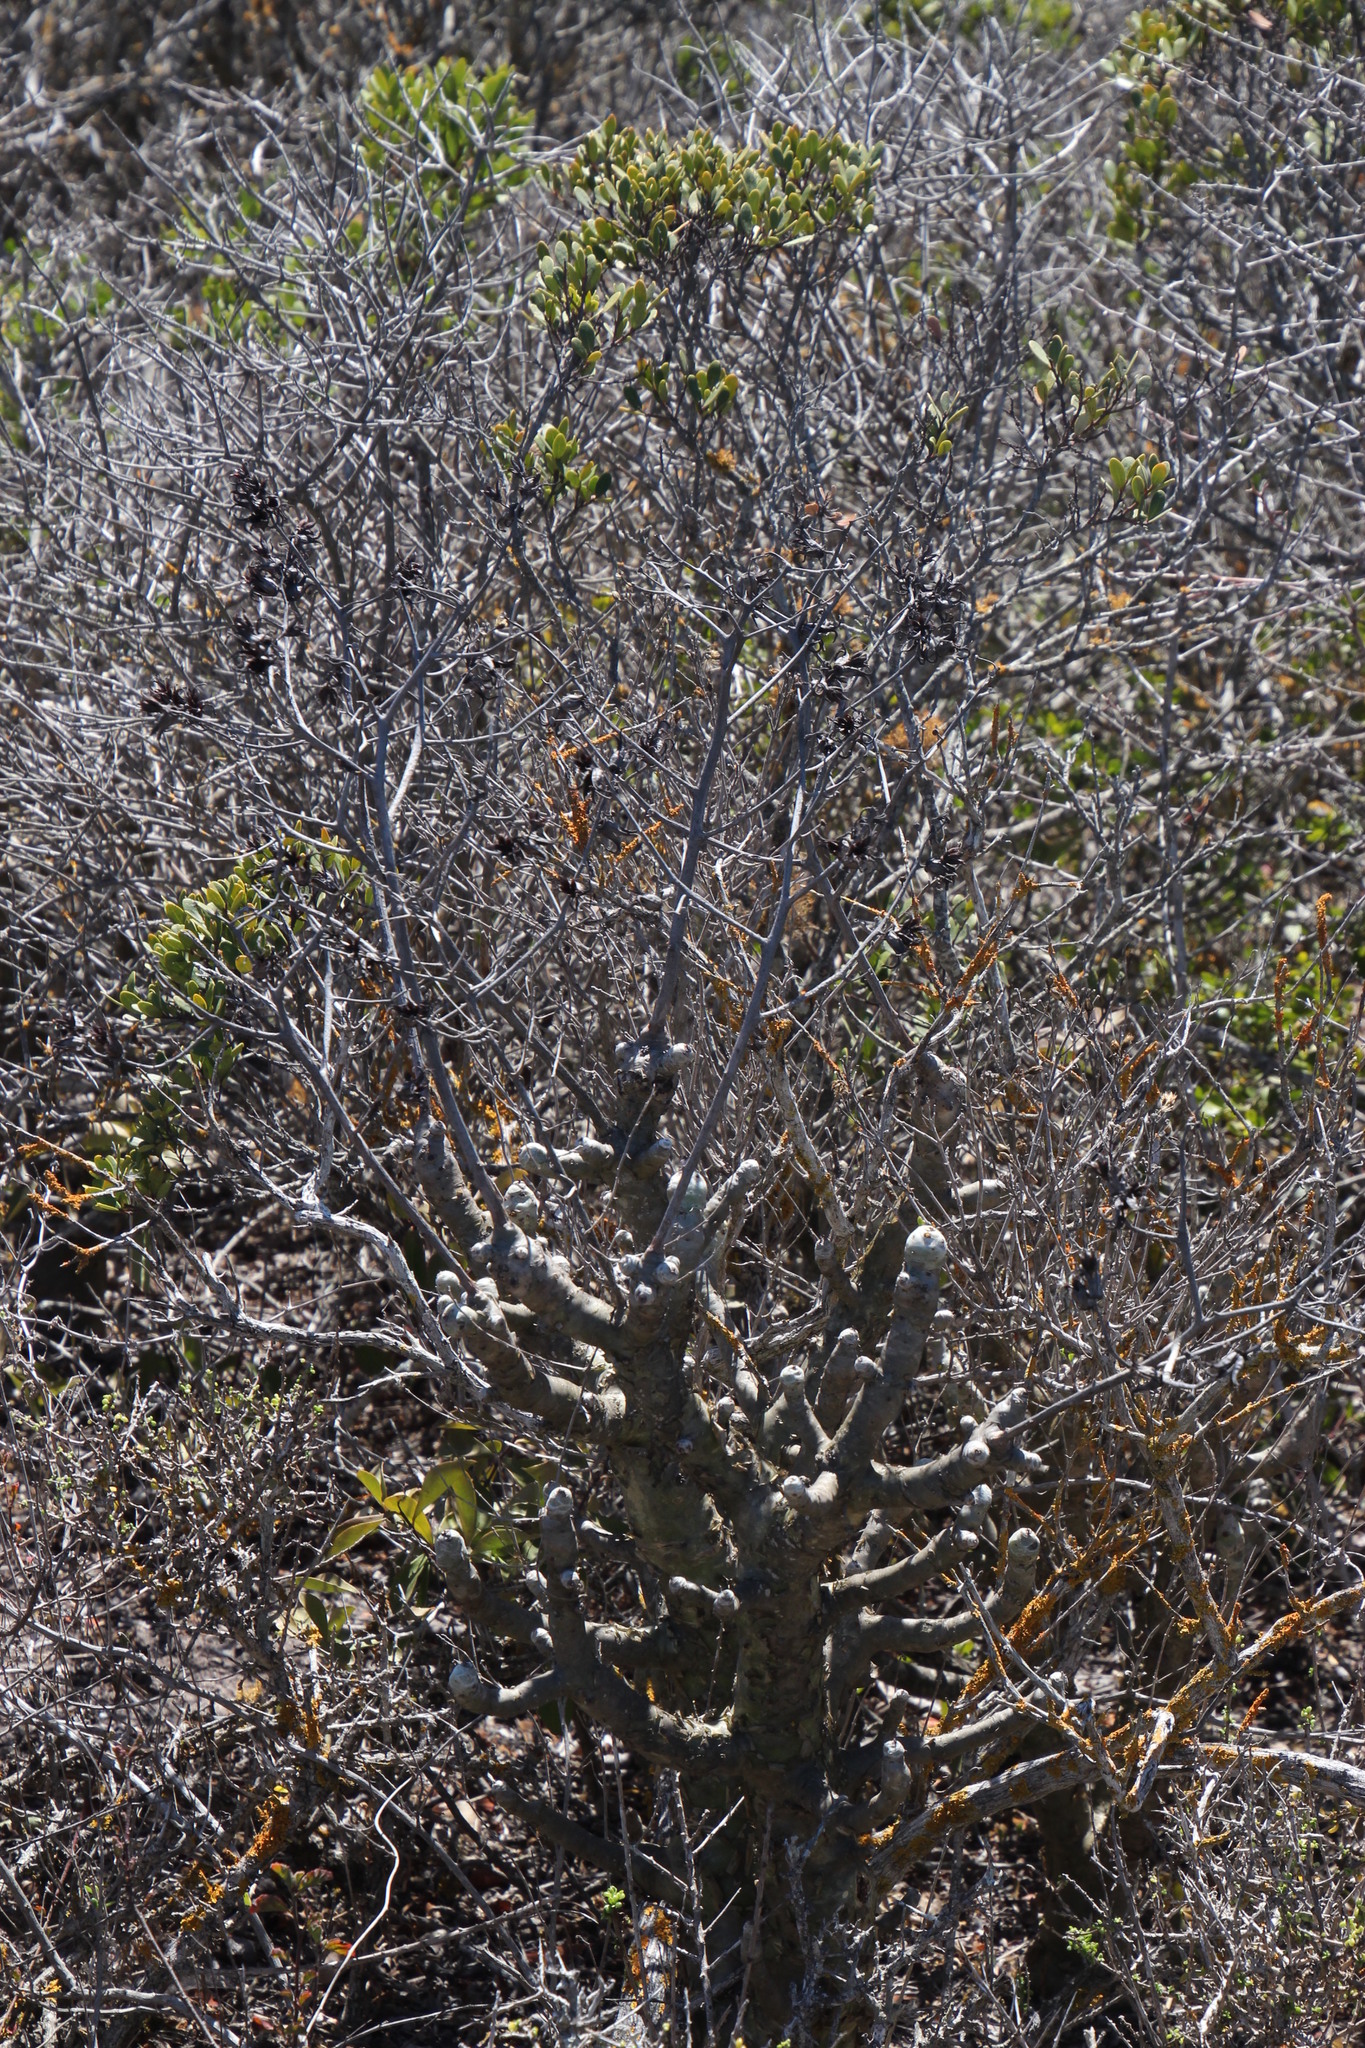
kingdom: Plantae
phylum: Tracheophyta
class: Magnoliopsida
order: Saxifragales
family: Crassulaceae
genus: Tylecodon
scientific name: Tylecodon paniculatus
